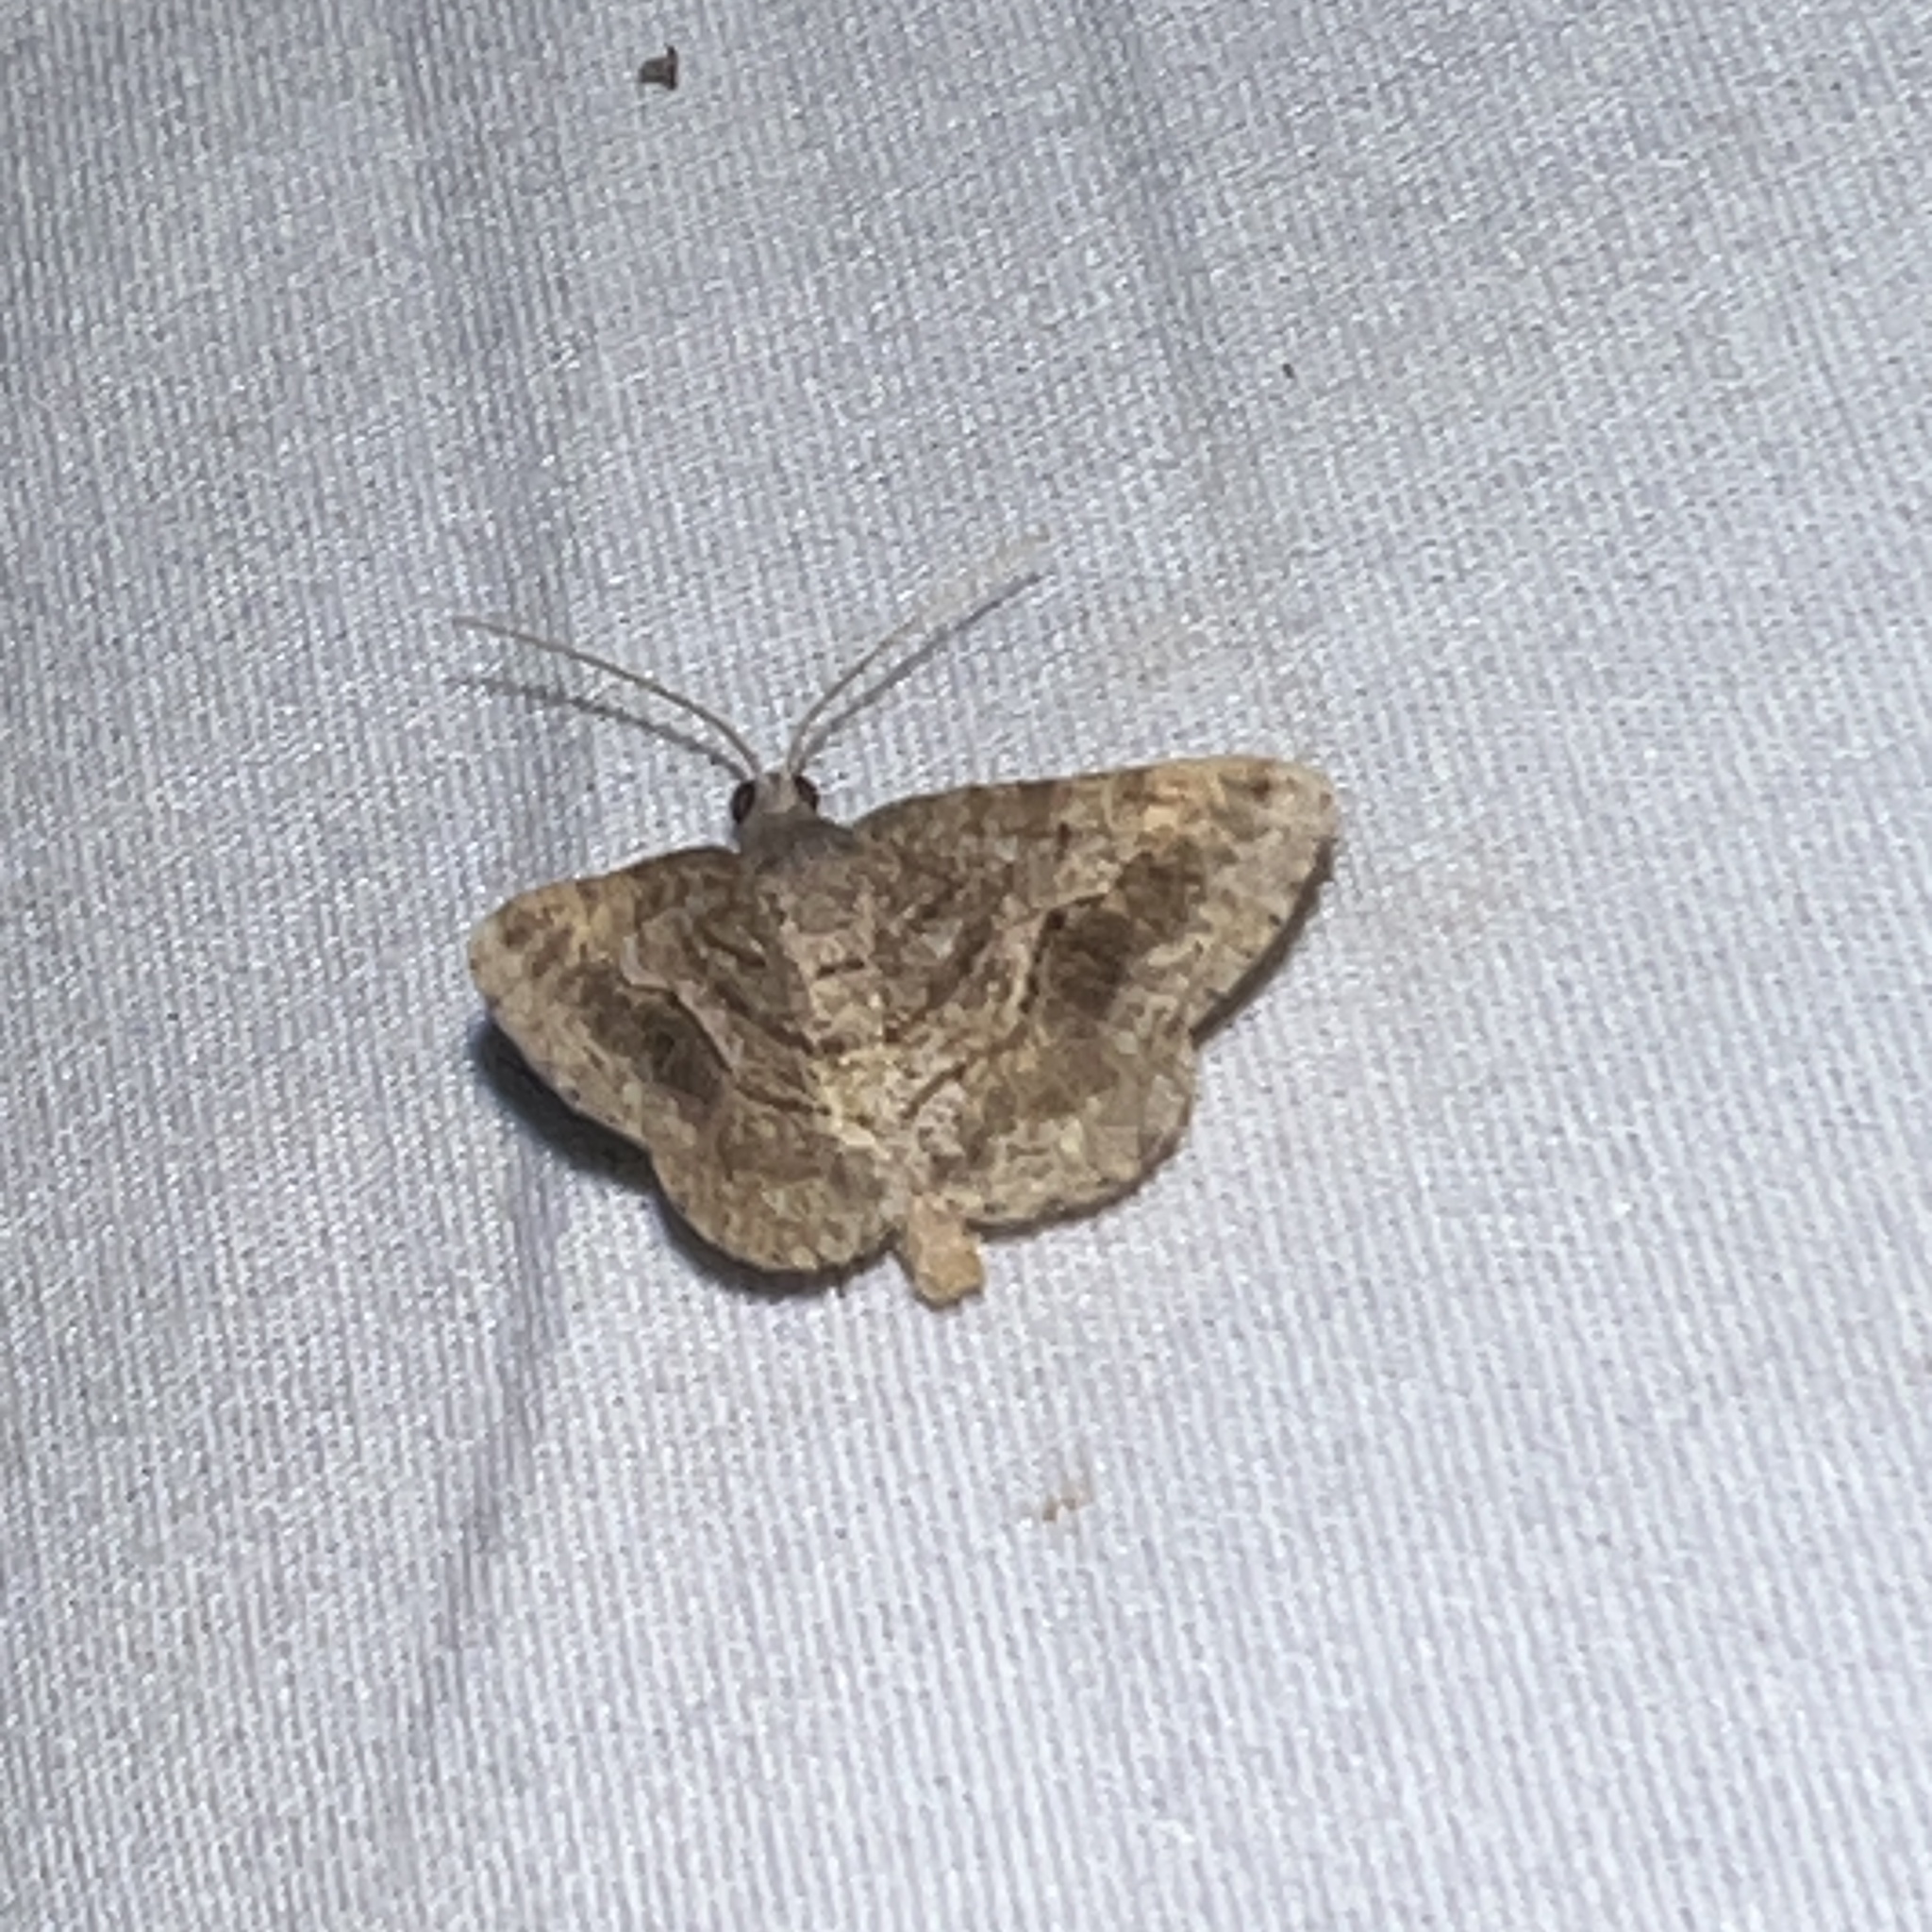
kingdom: Animalia
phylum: Arthropoda
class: Insecta
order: Lepidoptera
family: Geometridae
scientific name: Geometridae
